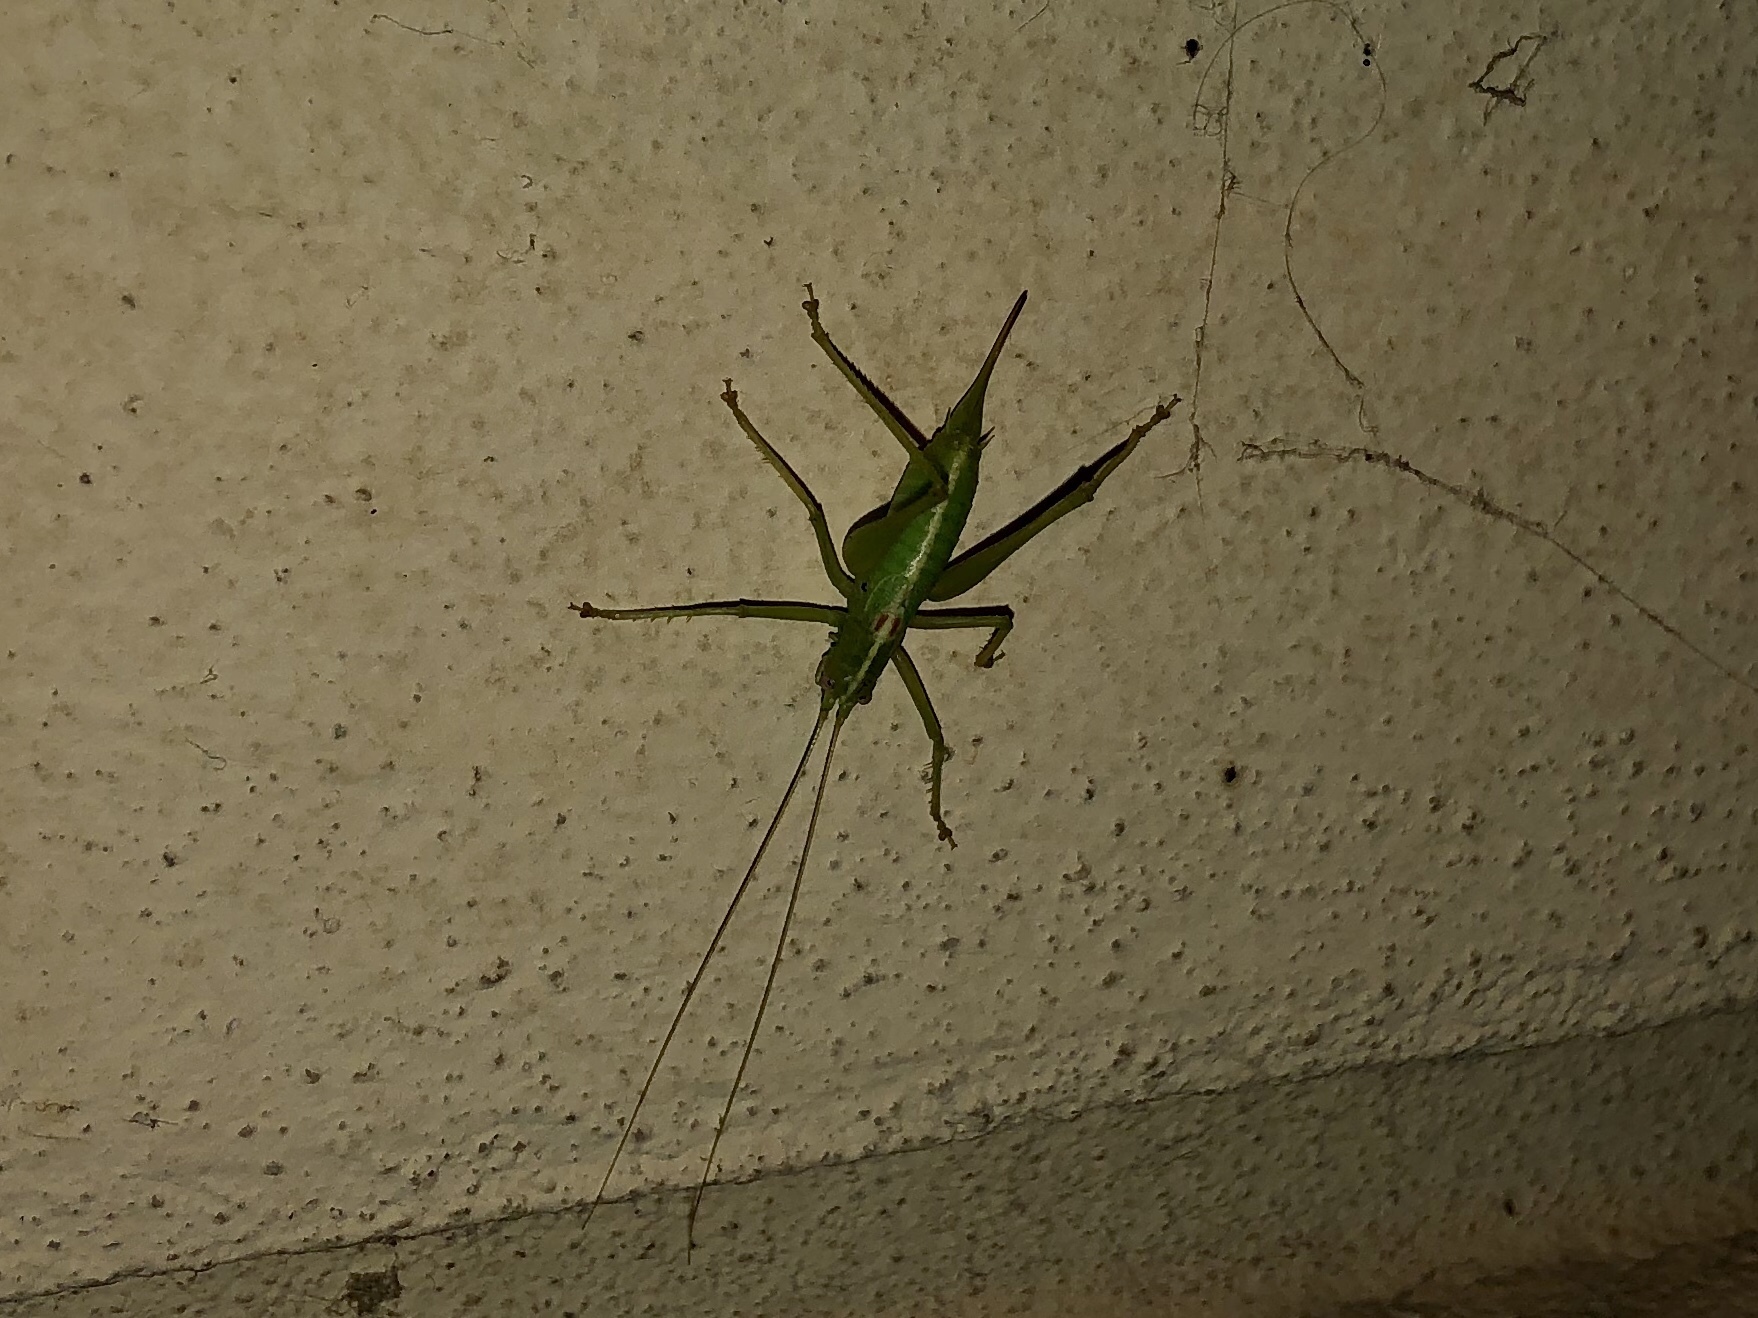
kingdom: Animalia
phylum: Arthropoda
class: Insecta
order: Orthoptera
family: Tettigoniidae
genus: Meconema
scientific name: Meconema meridionale
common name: Southern oak bush-cricket
